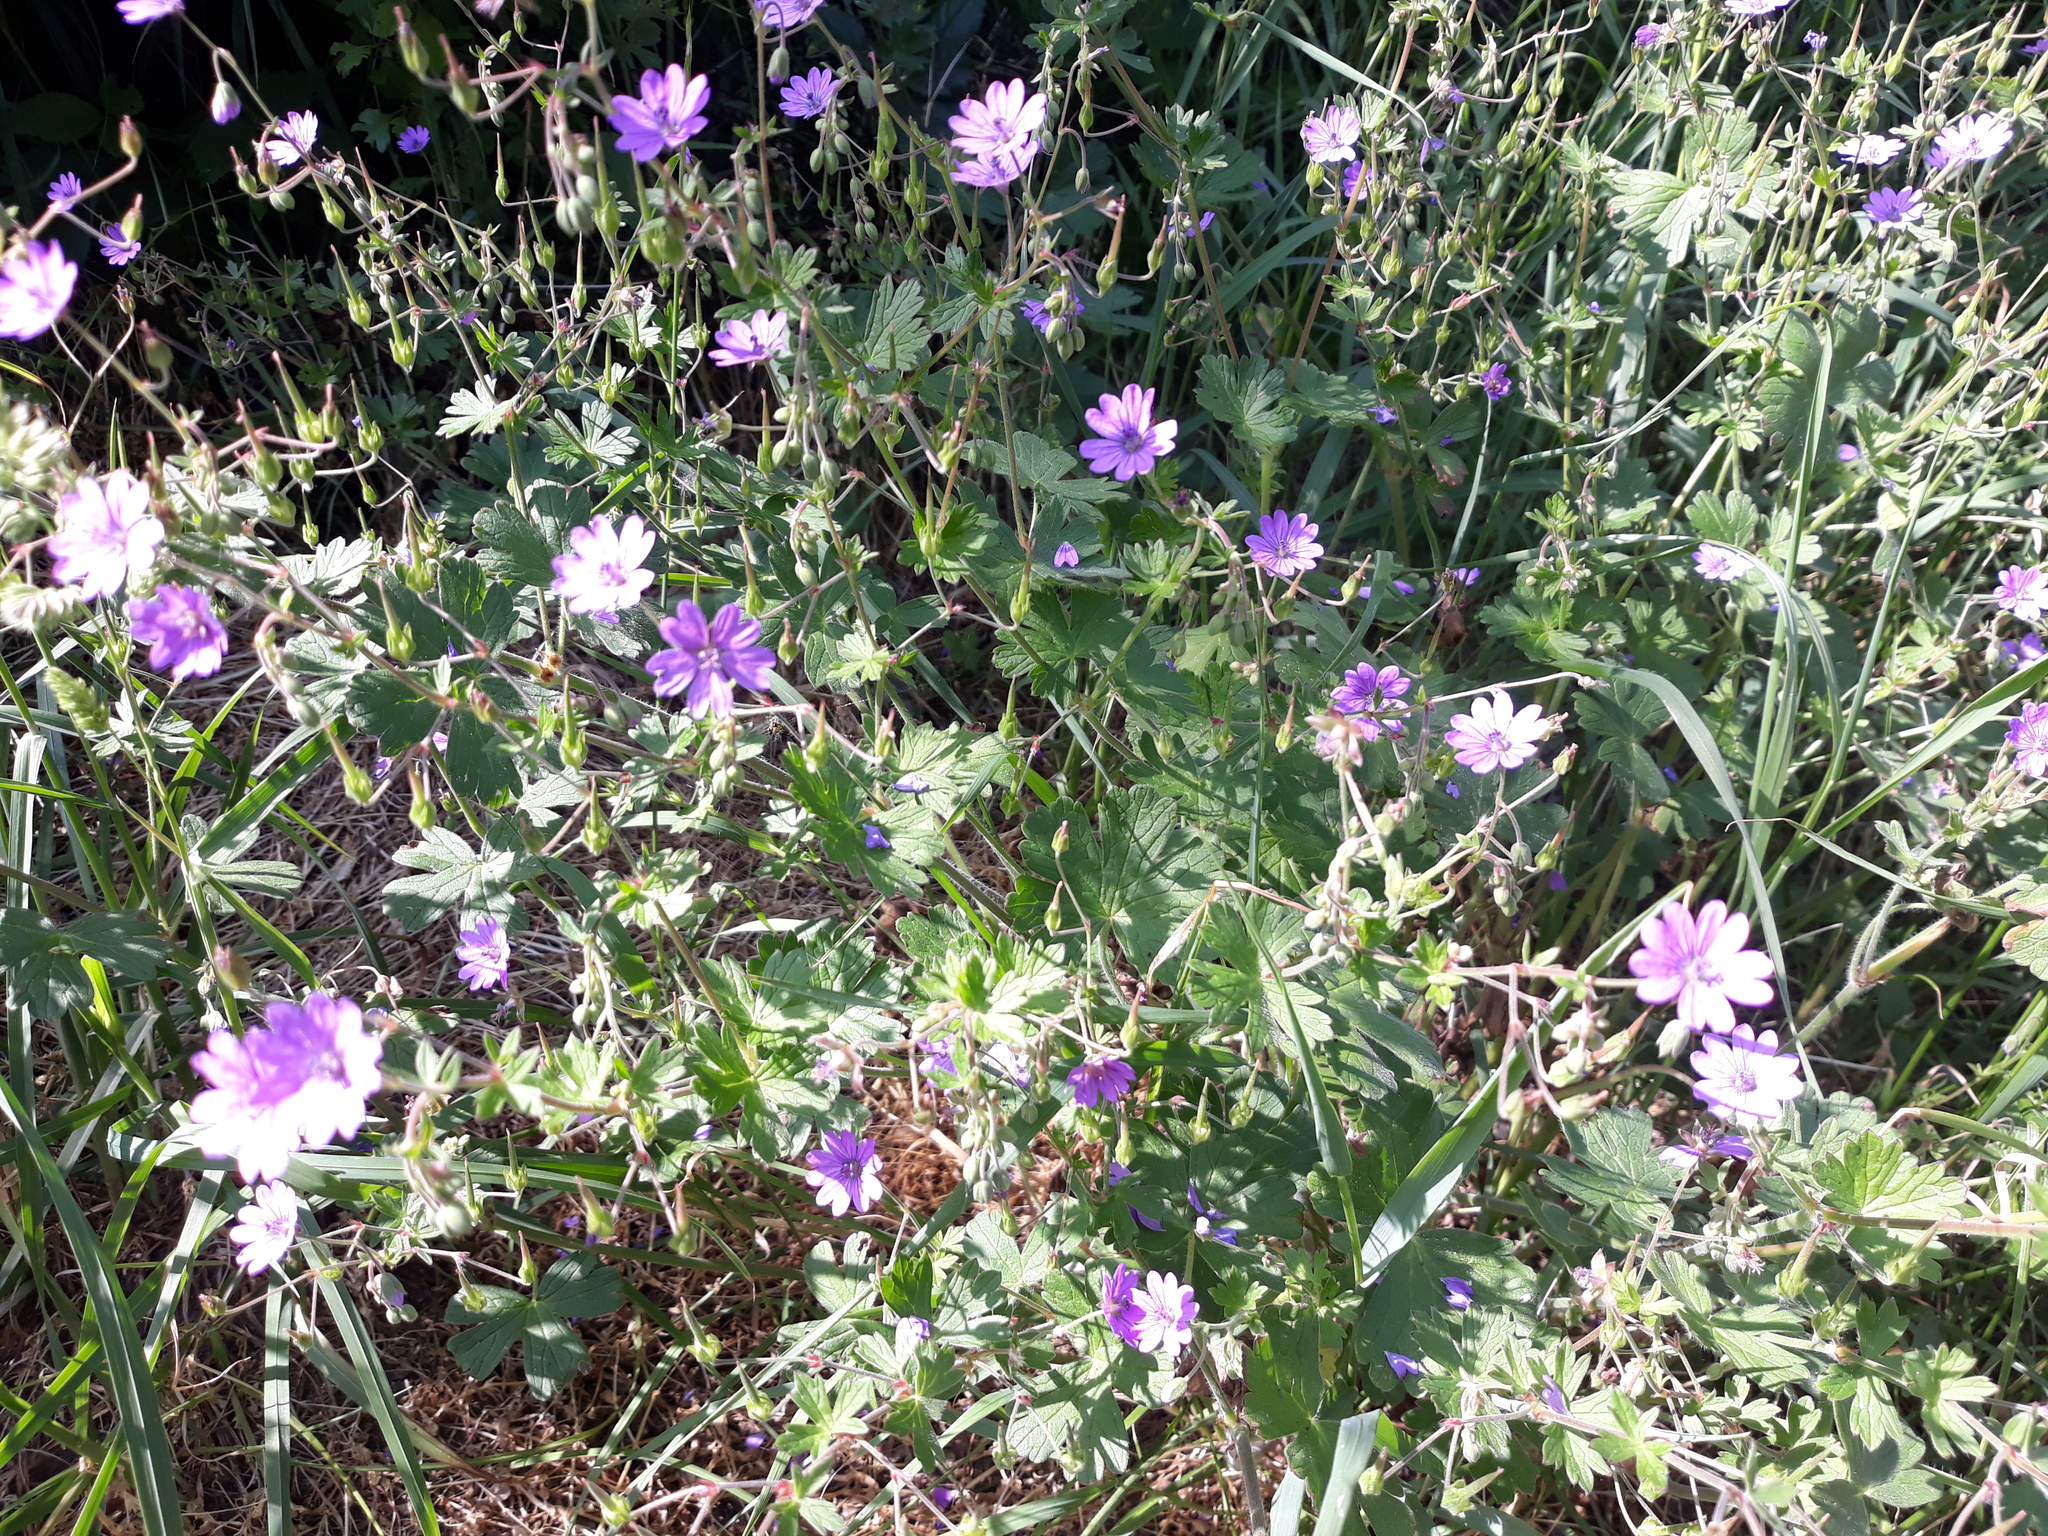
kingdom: Plantae
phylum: Tracheophyta
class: Magnoliopsida
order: Geraniales
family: Geraniaceae
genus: Geranium
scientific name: Geranium pyrenaicum
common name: Hedgerow crane's-bill
